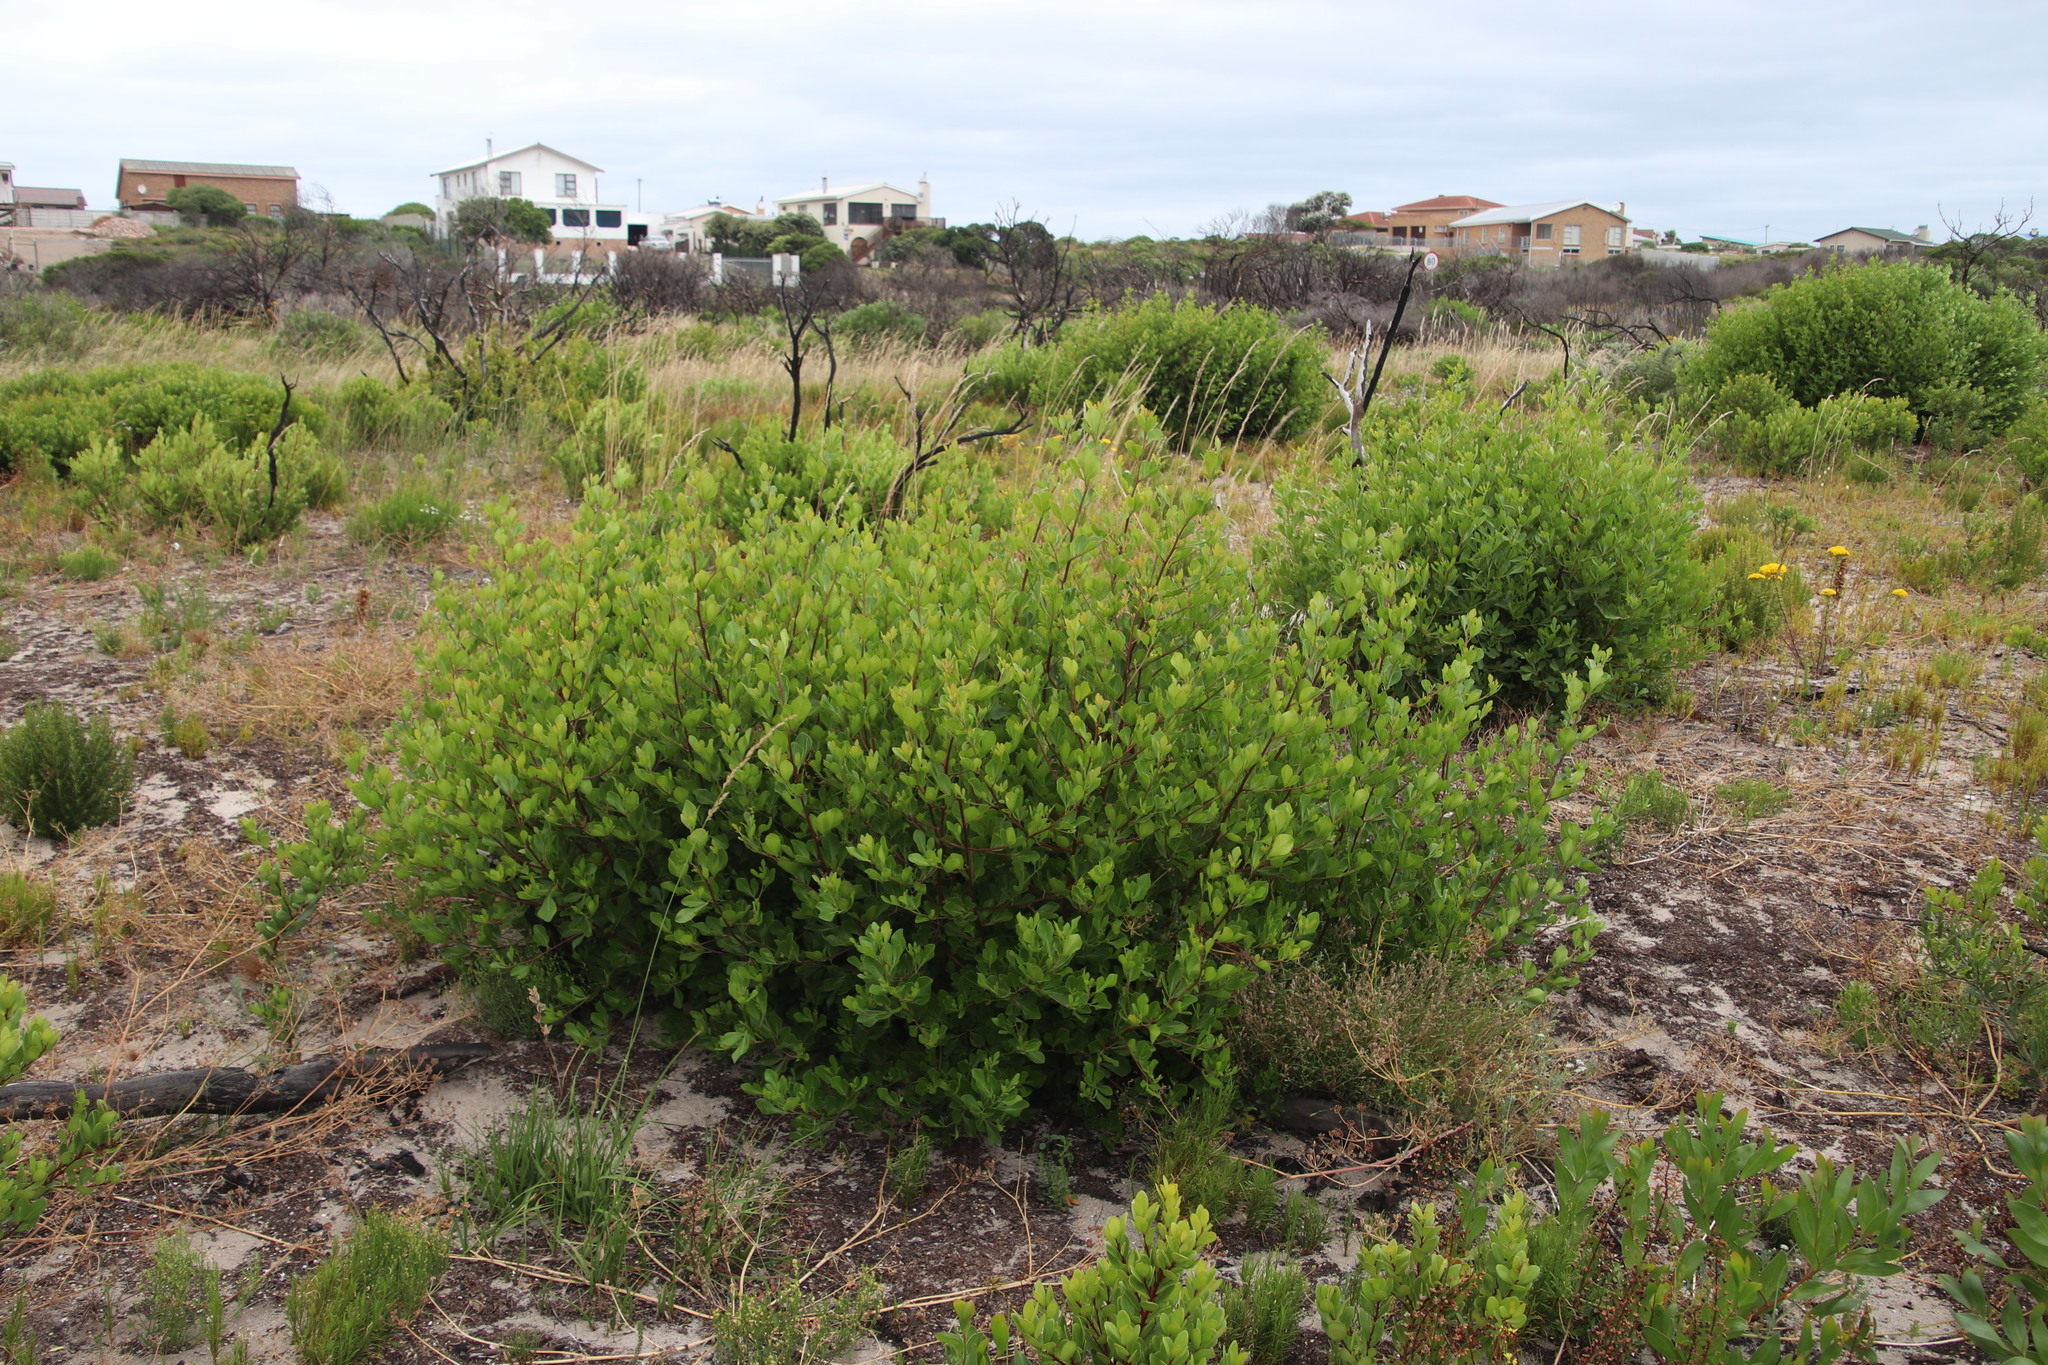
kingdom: Plantae
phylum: Tracheophyta
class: Magnoliopsida
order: Ericales
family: Ebenaceae
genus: Euclea
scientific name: Euclea racemosa
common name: Dune guarri
